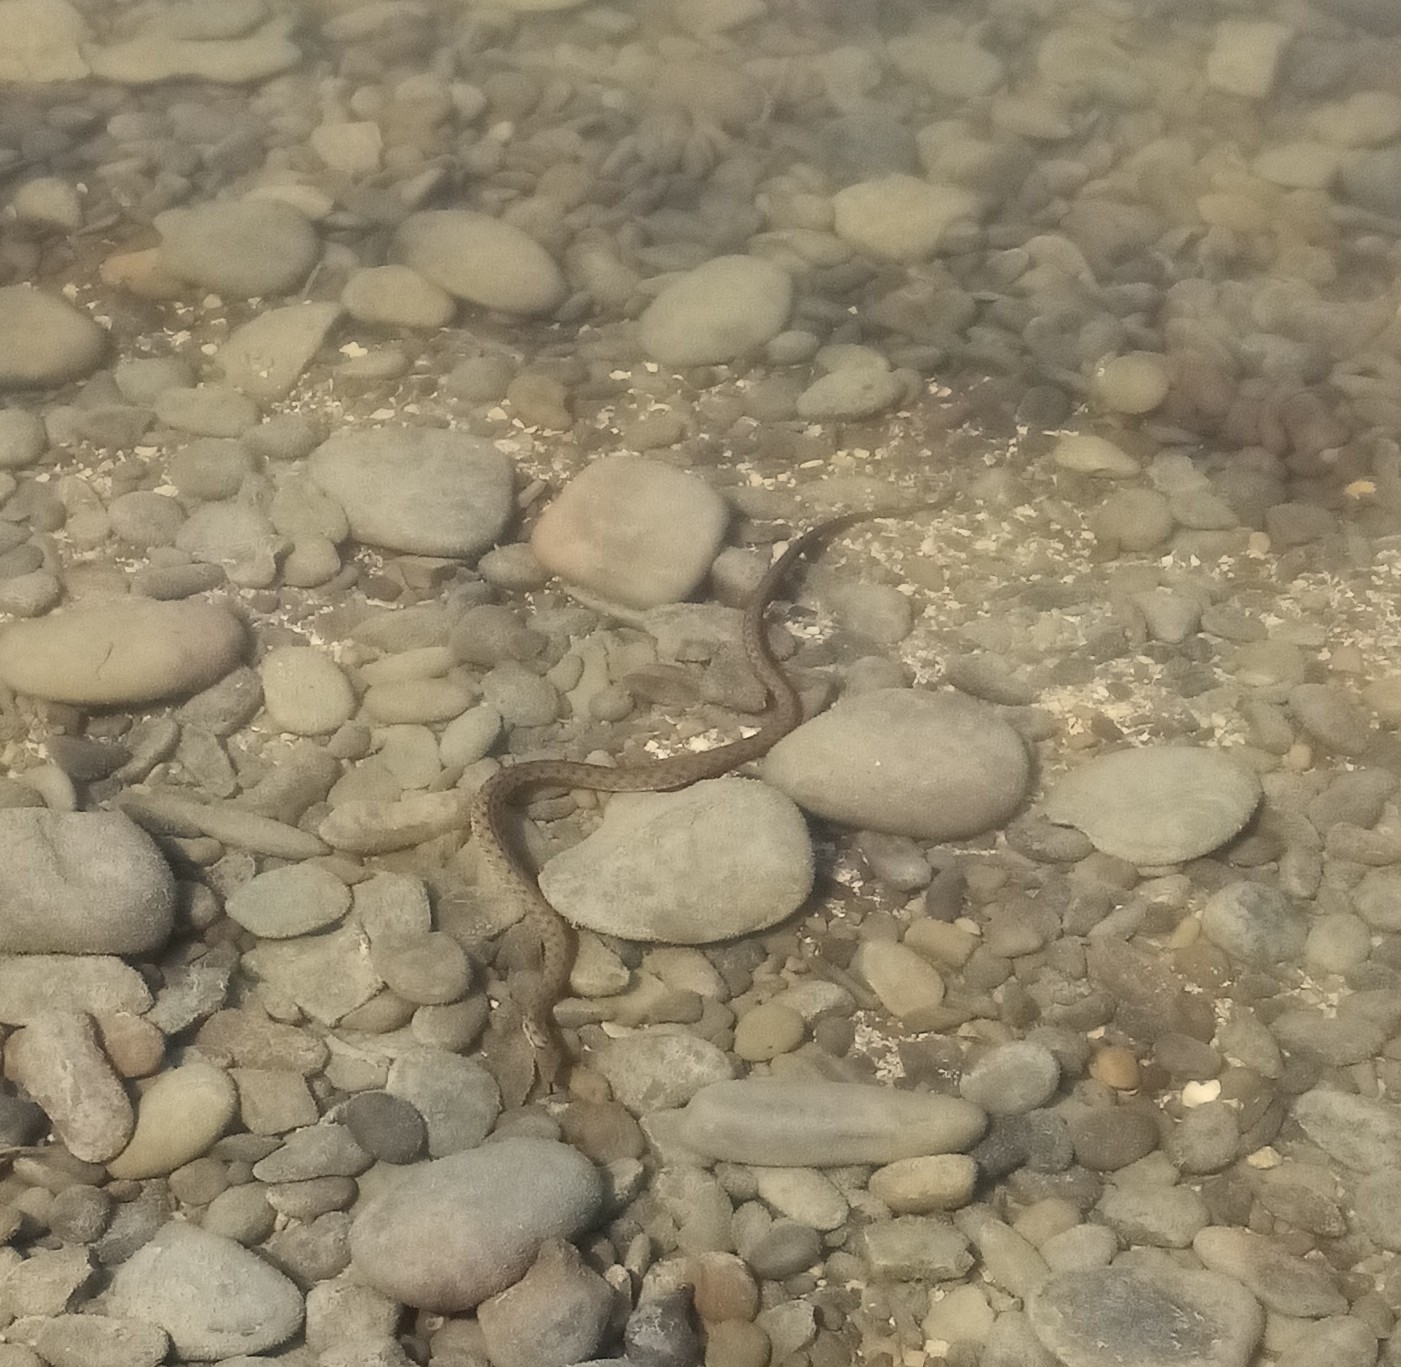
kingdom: Animalia
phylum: Chordata
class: Squamata
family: Colubridae
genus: Natrix
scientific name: Natrix tessellata
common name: Dice snake
